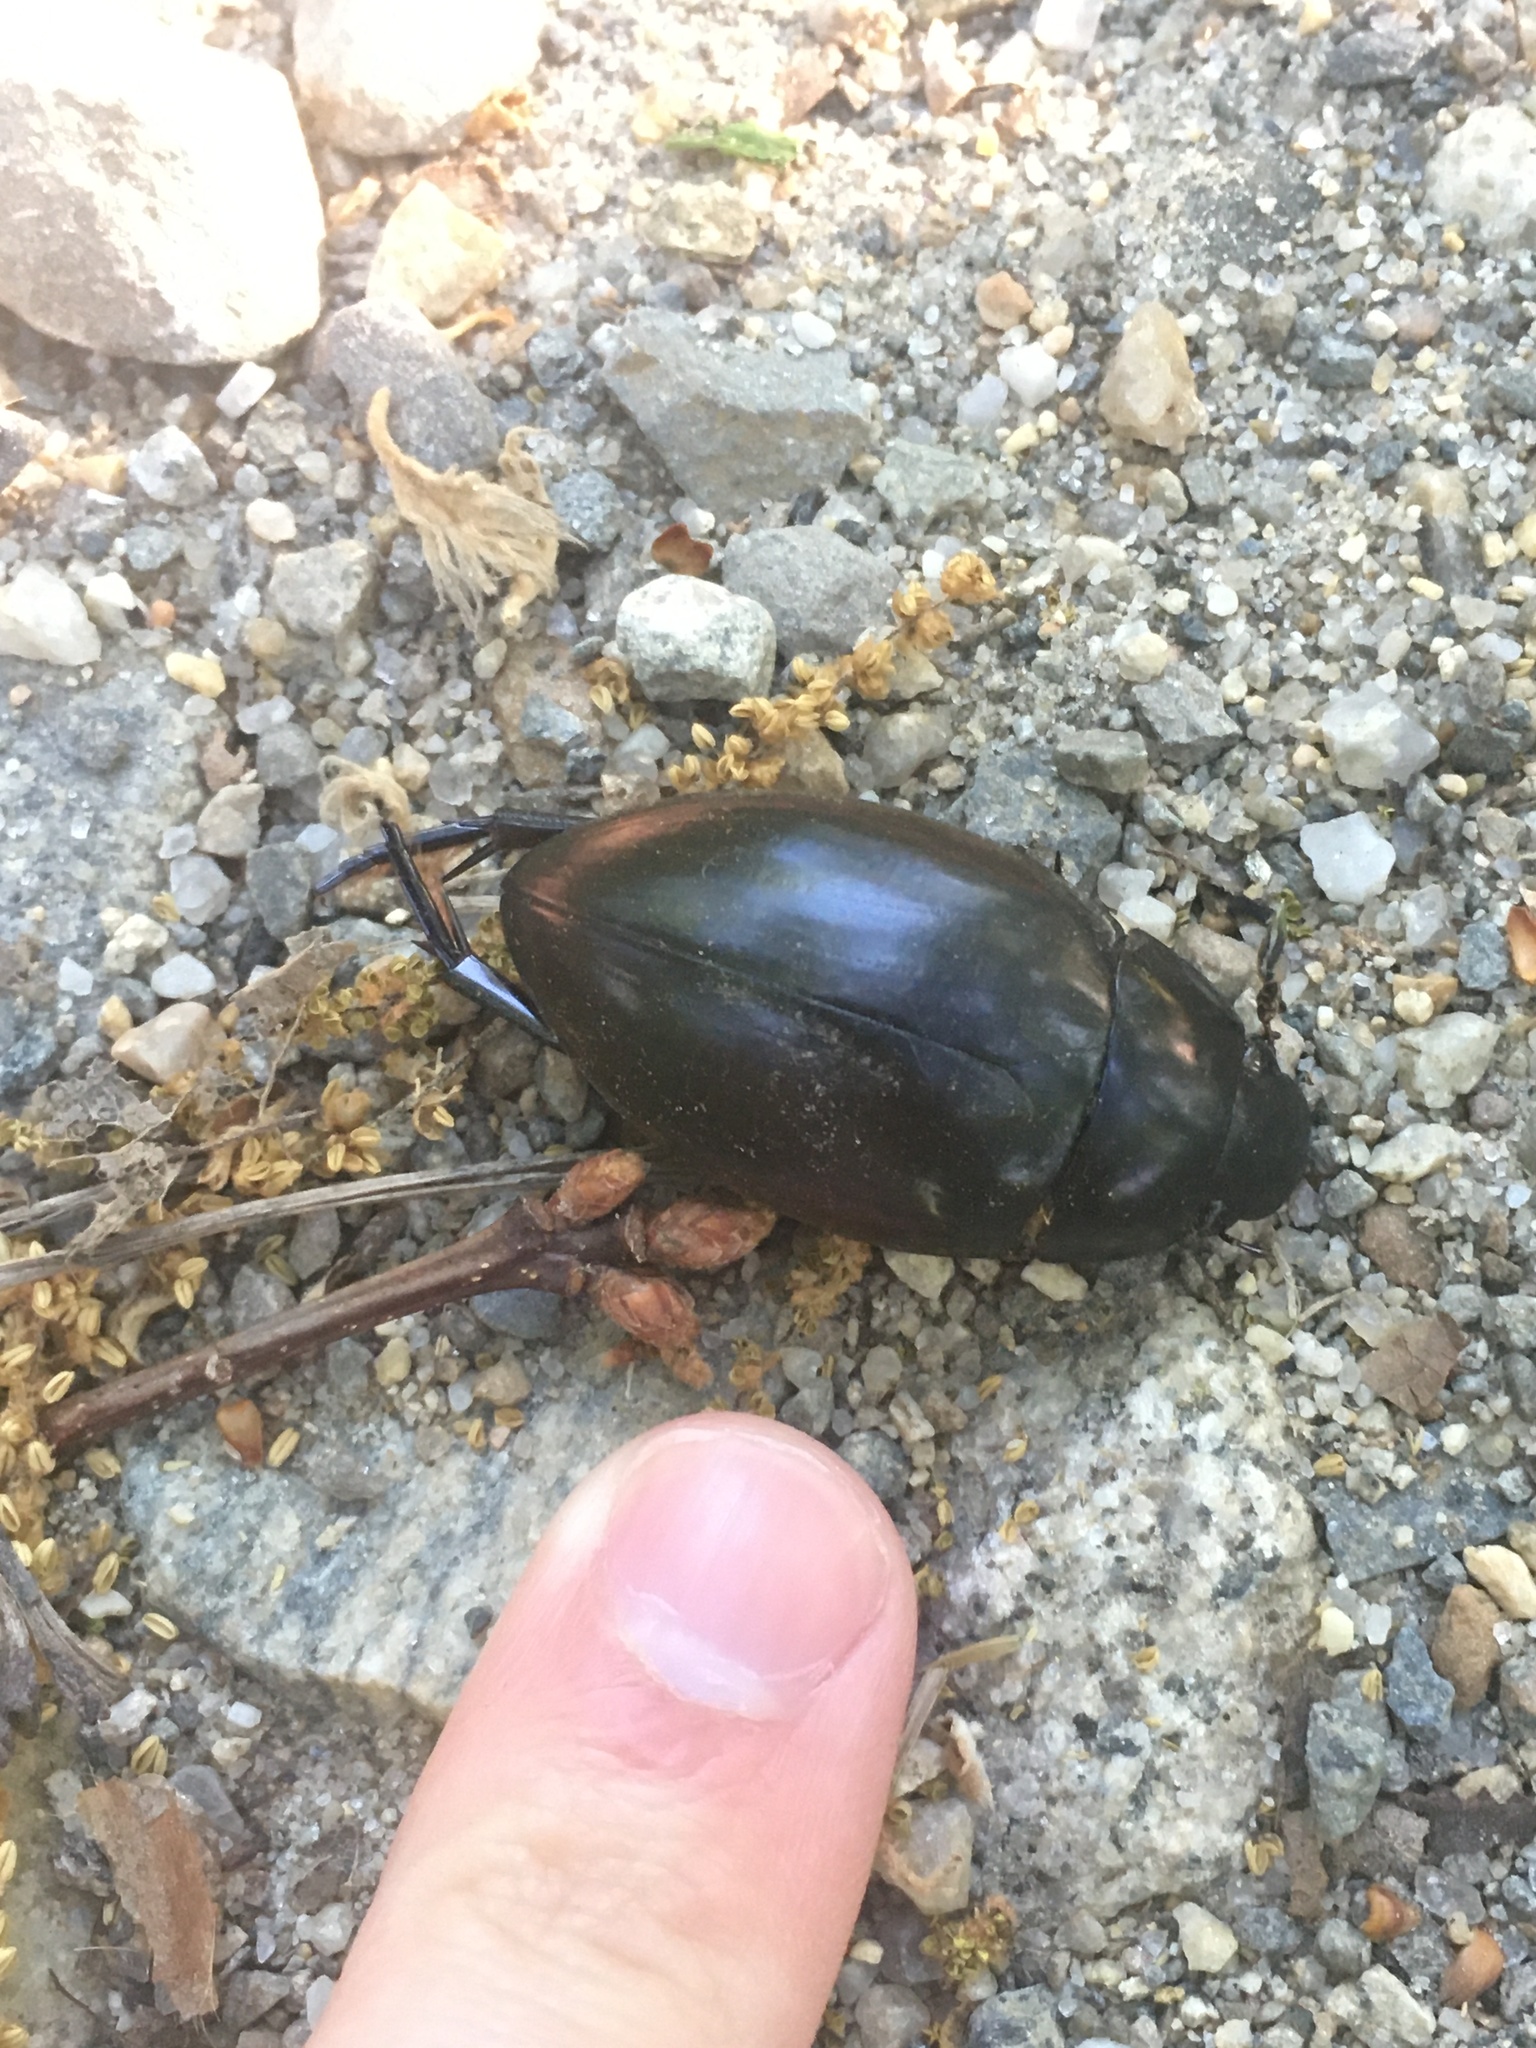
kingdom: Animalia
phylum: Arthropoda
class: Insecta
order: Coleoptera
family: Hydrophilidae
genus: Hydrophilus
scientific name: Hydrophilus ovatus
